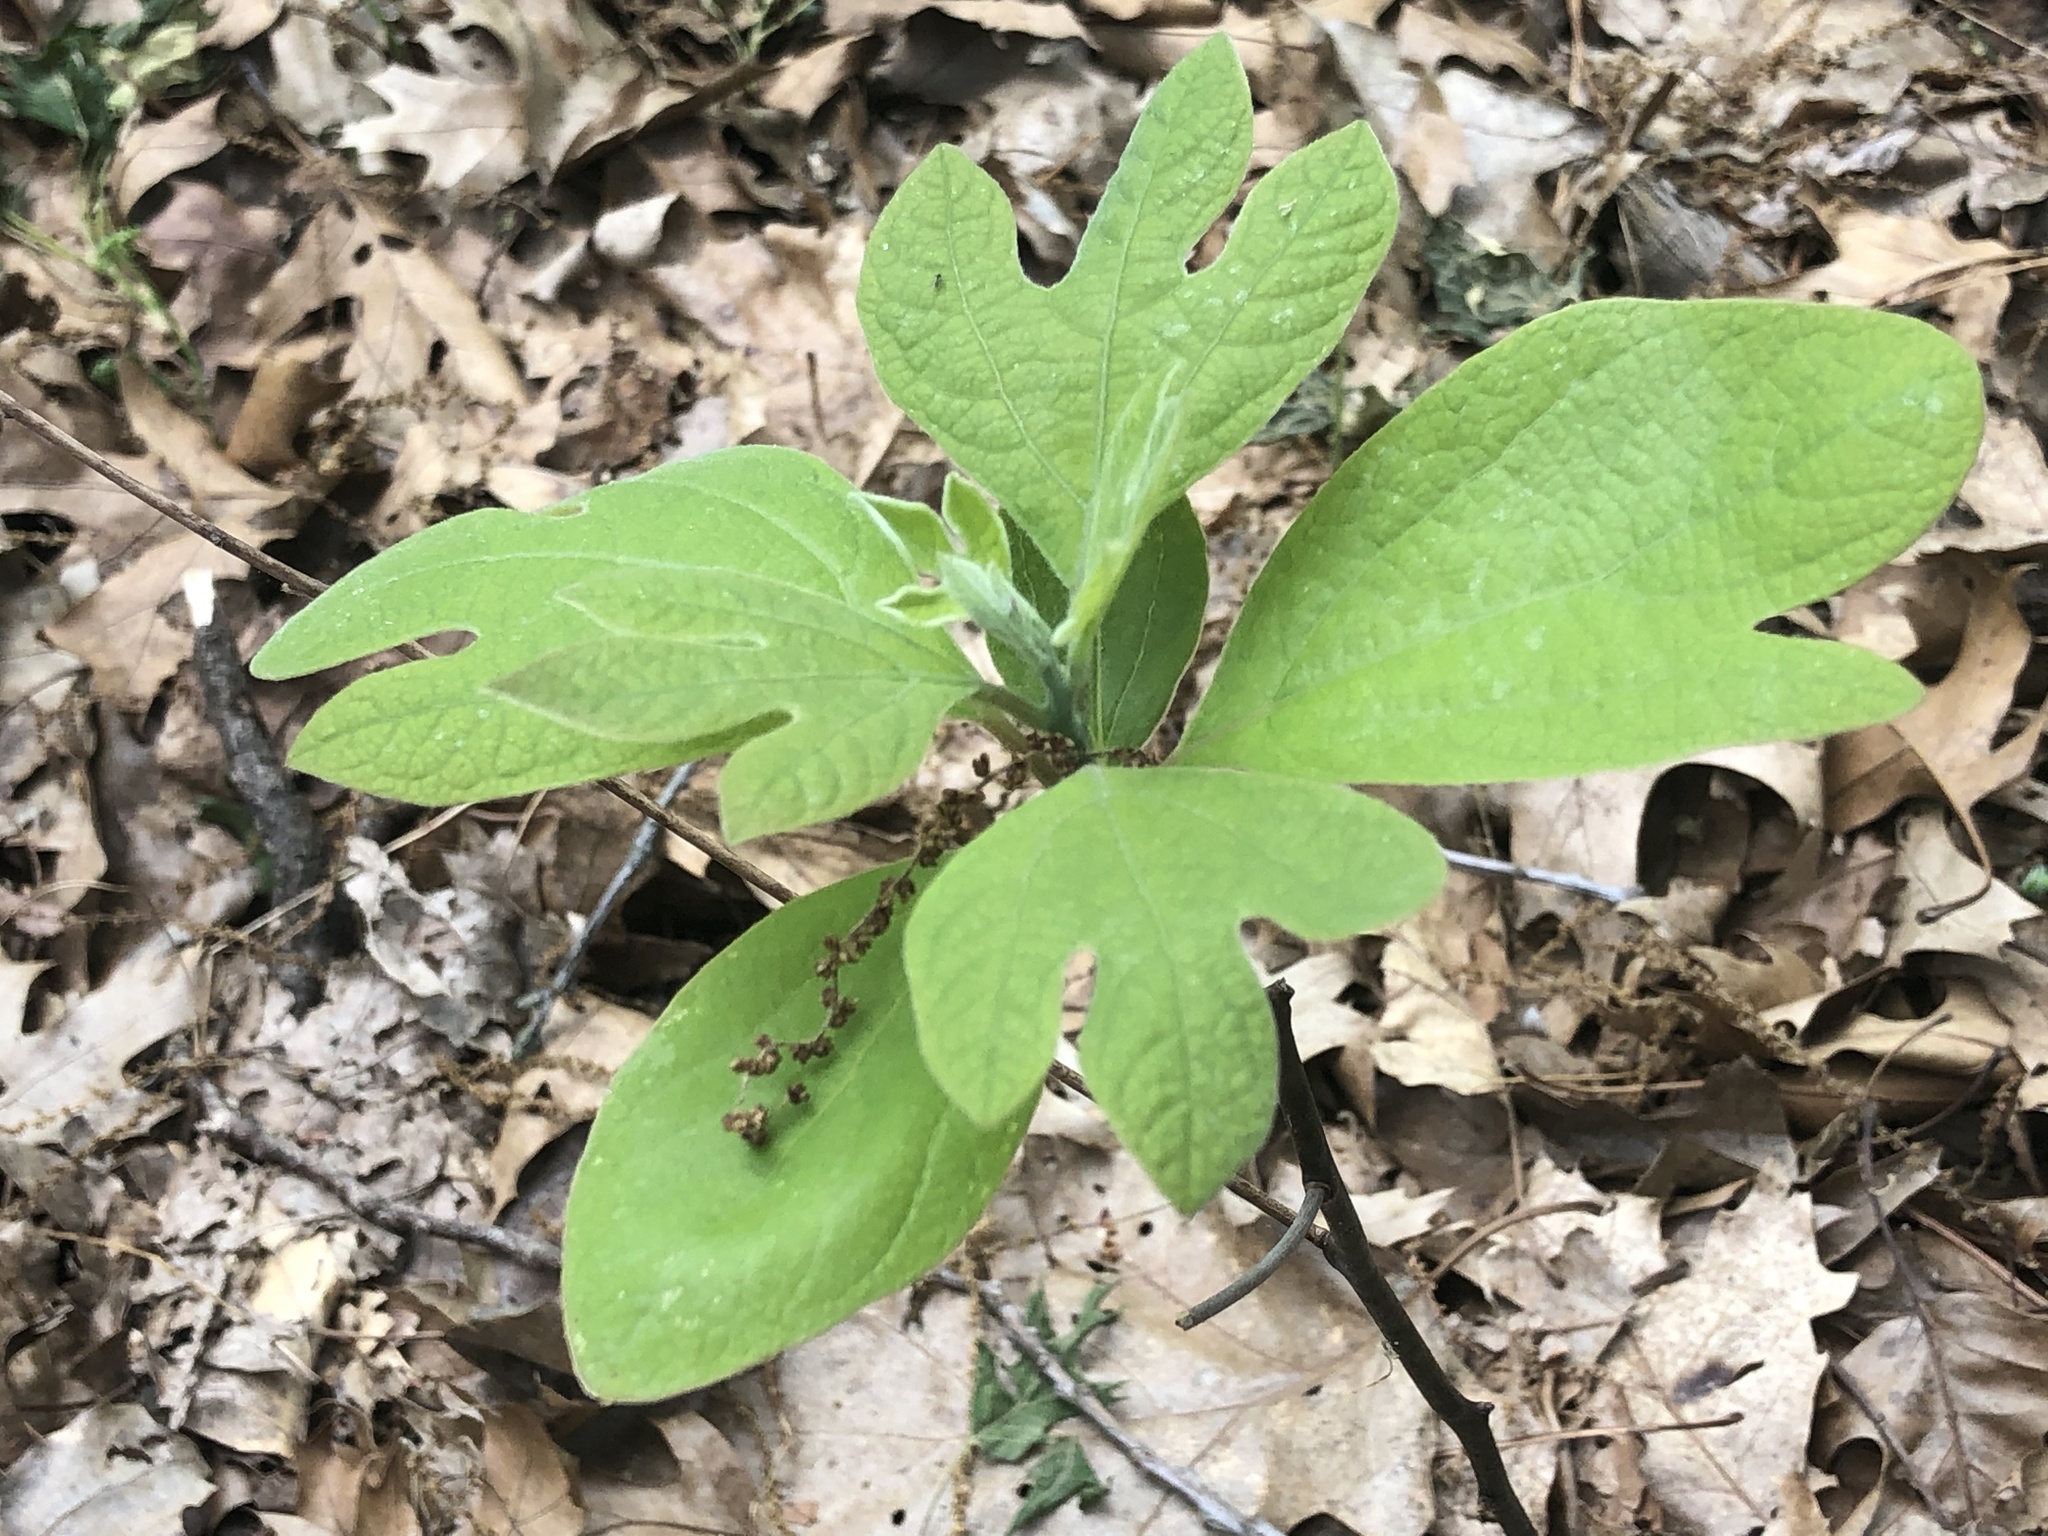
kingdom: Plantae
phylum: Tracheophyta
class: Magnoliopsida
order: Laurales
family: Lauraceae
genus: Sassafras
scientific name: Sassafras albidum
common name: Sassafras
